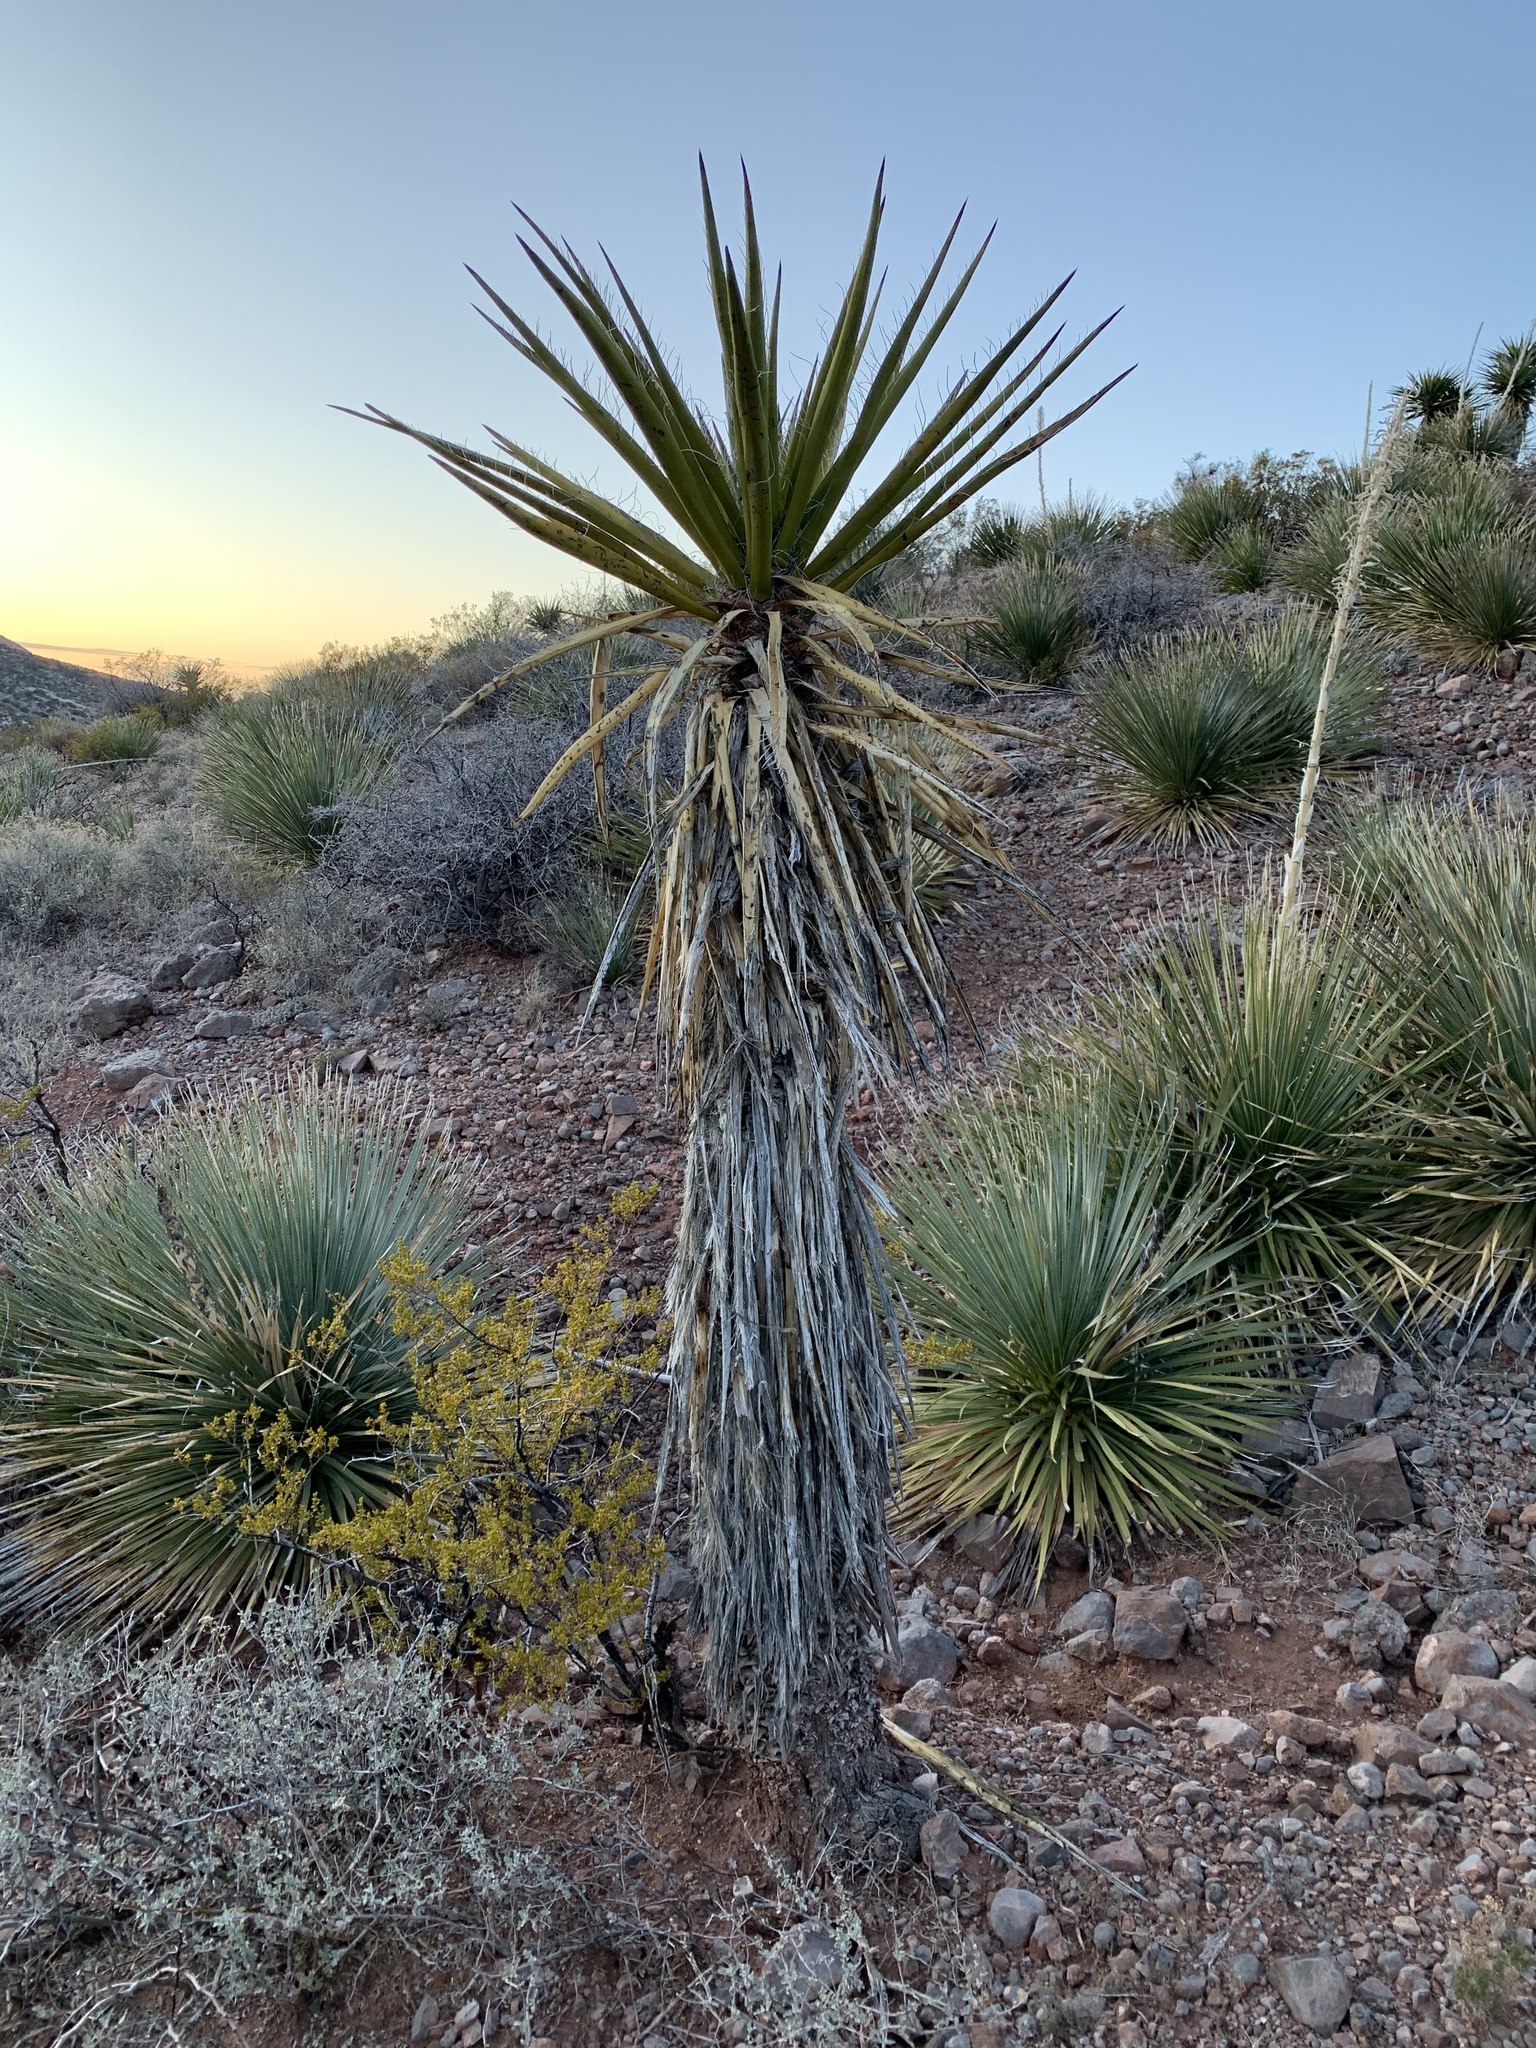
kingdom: Plantae
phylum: Tracheophyta
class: Liliopsida
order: Asparagales
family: Asparagaceae
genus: Yucca
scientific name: Yucca treculiana
